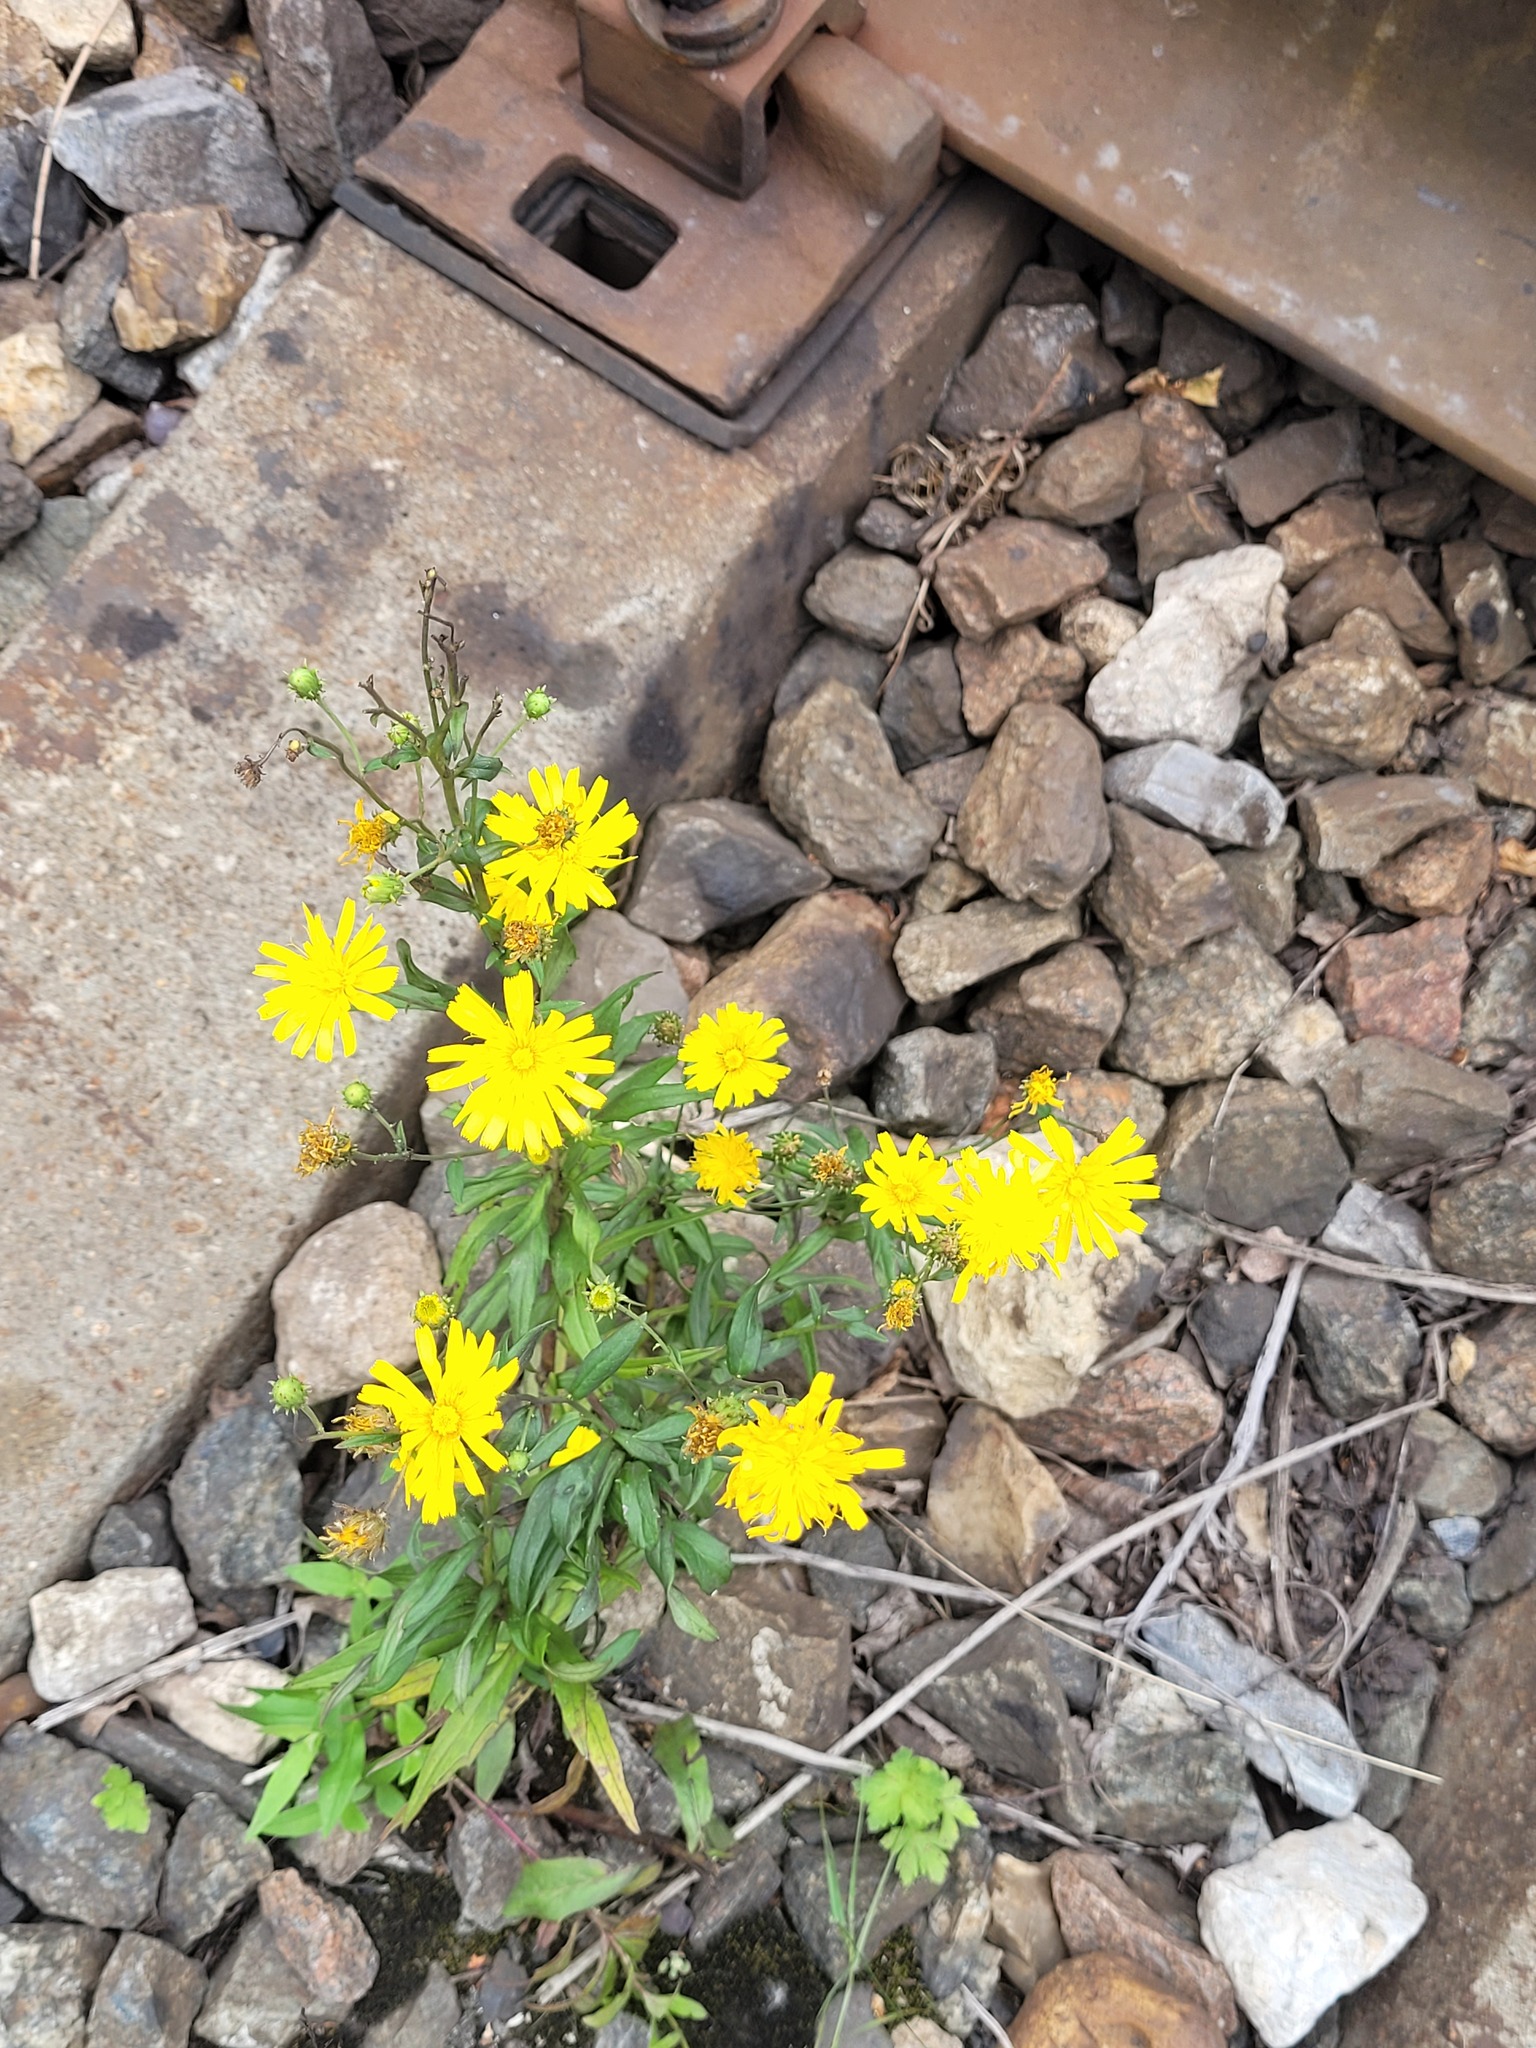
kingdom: Plantae
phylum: Tracheophyta
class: Magnoliopsida
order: Asterales
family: Asteraceae
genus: Hieracium
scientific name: Hieracium umbellatum
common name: Northern hawkweed
